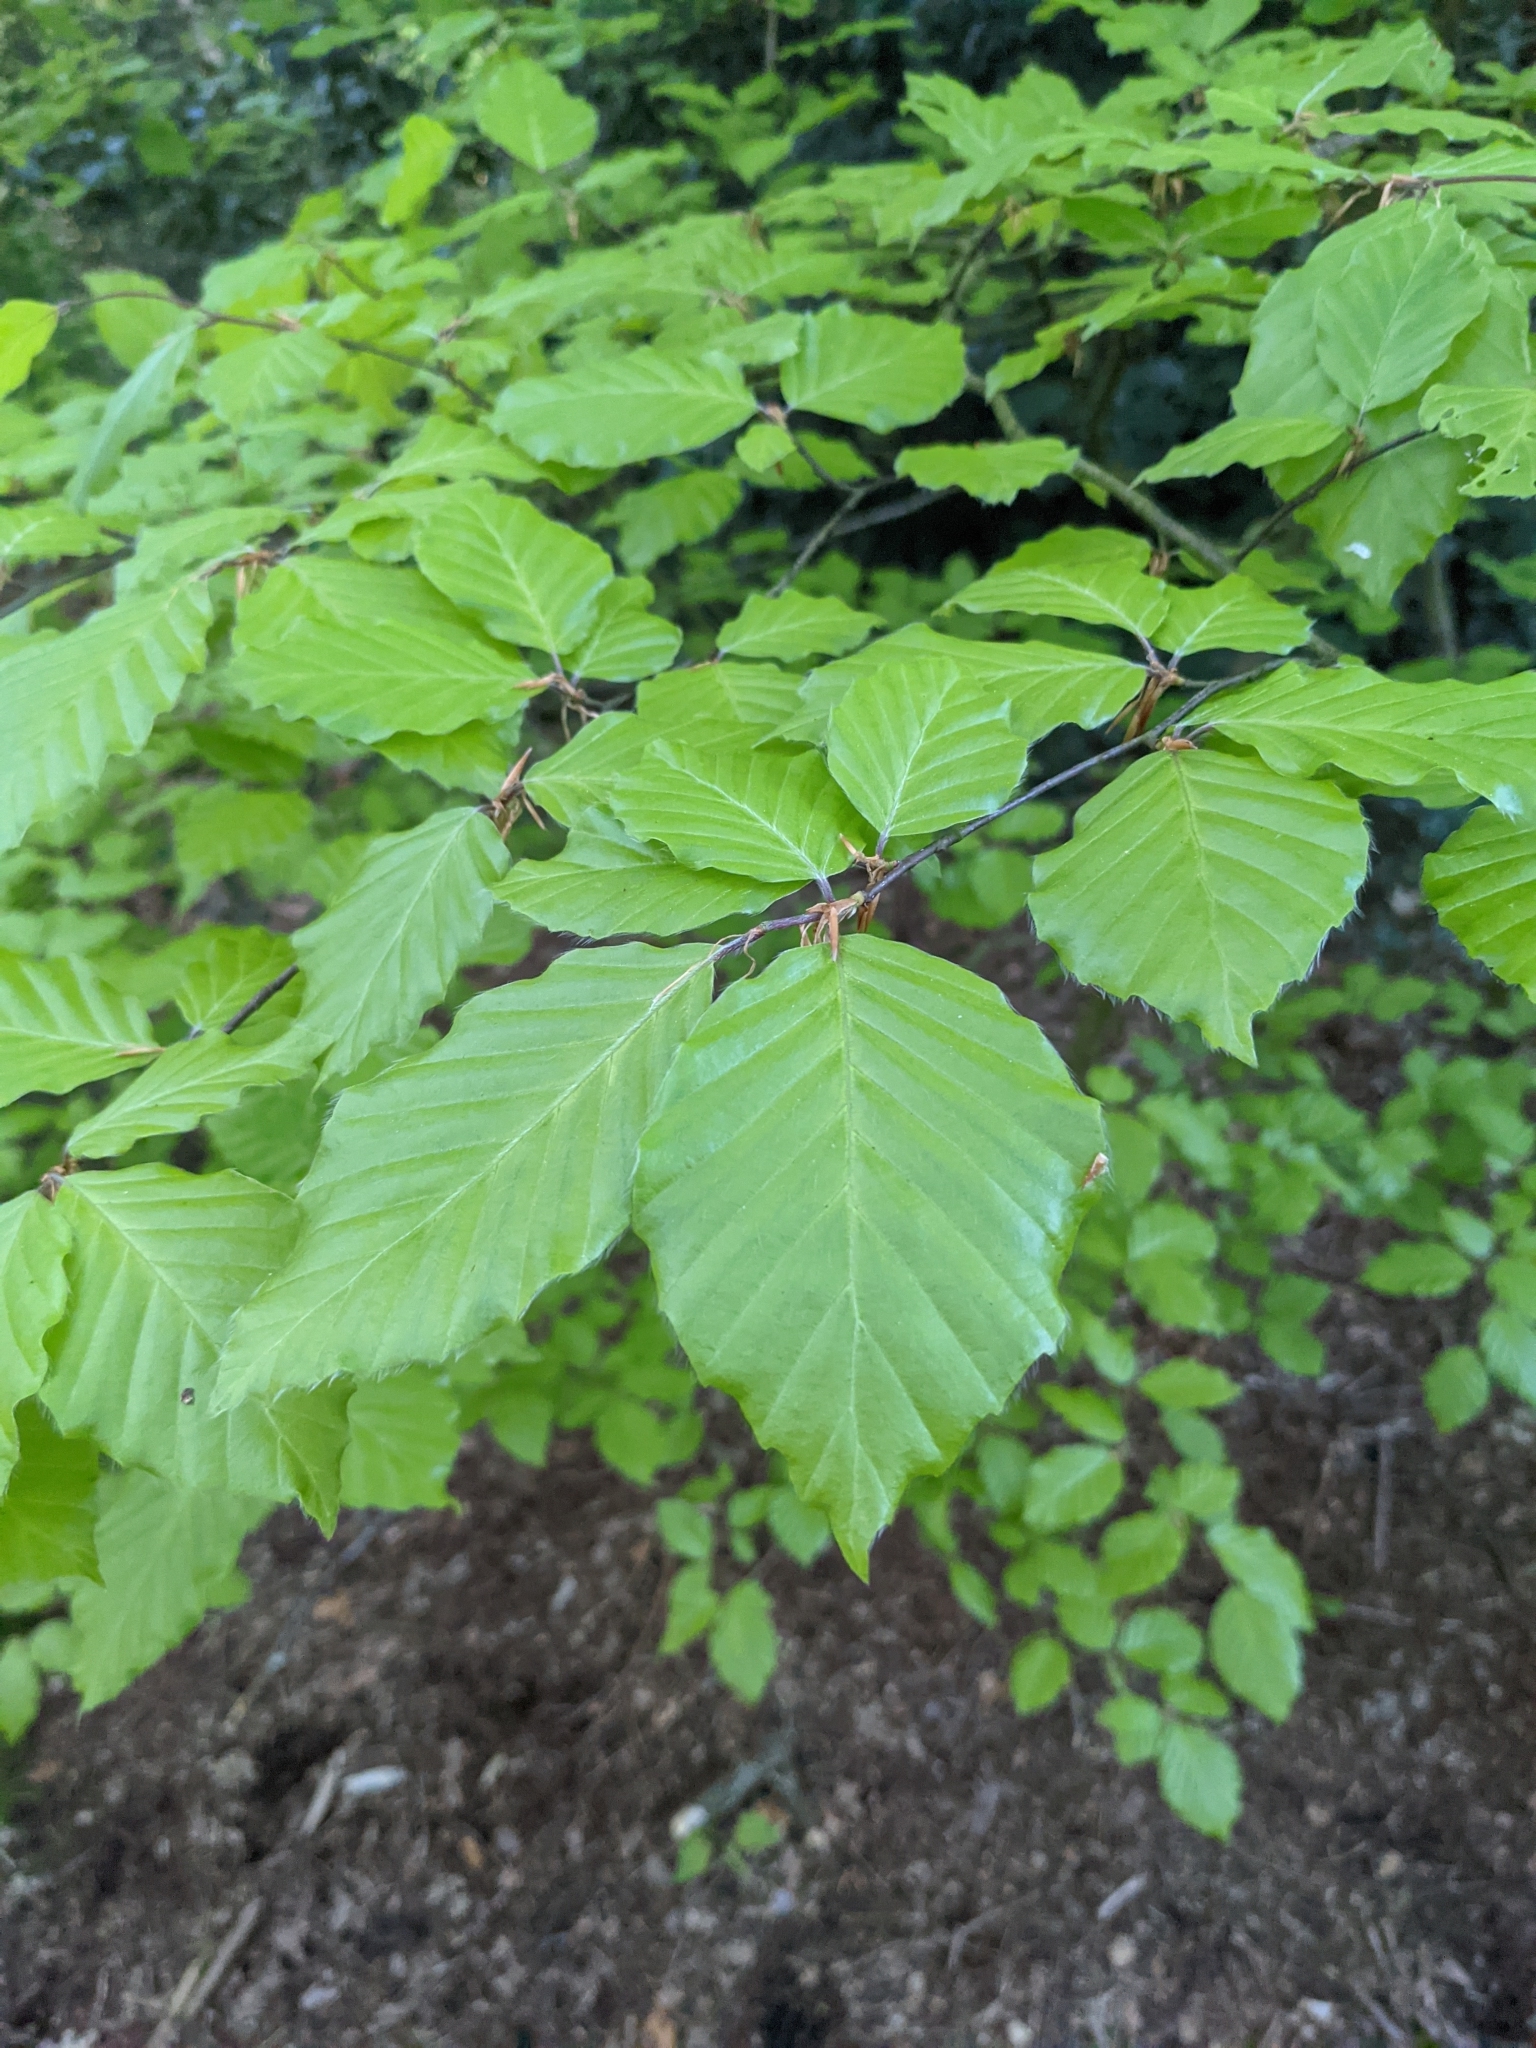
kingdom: Plantae
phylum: Tracheophyta
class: Magnoliopsida
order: Fagales
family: Fagaceae
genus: Fagus
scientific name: Fagus sylvatica
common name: Beech
